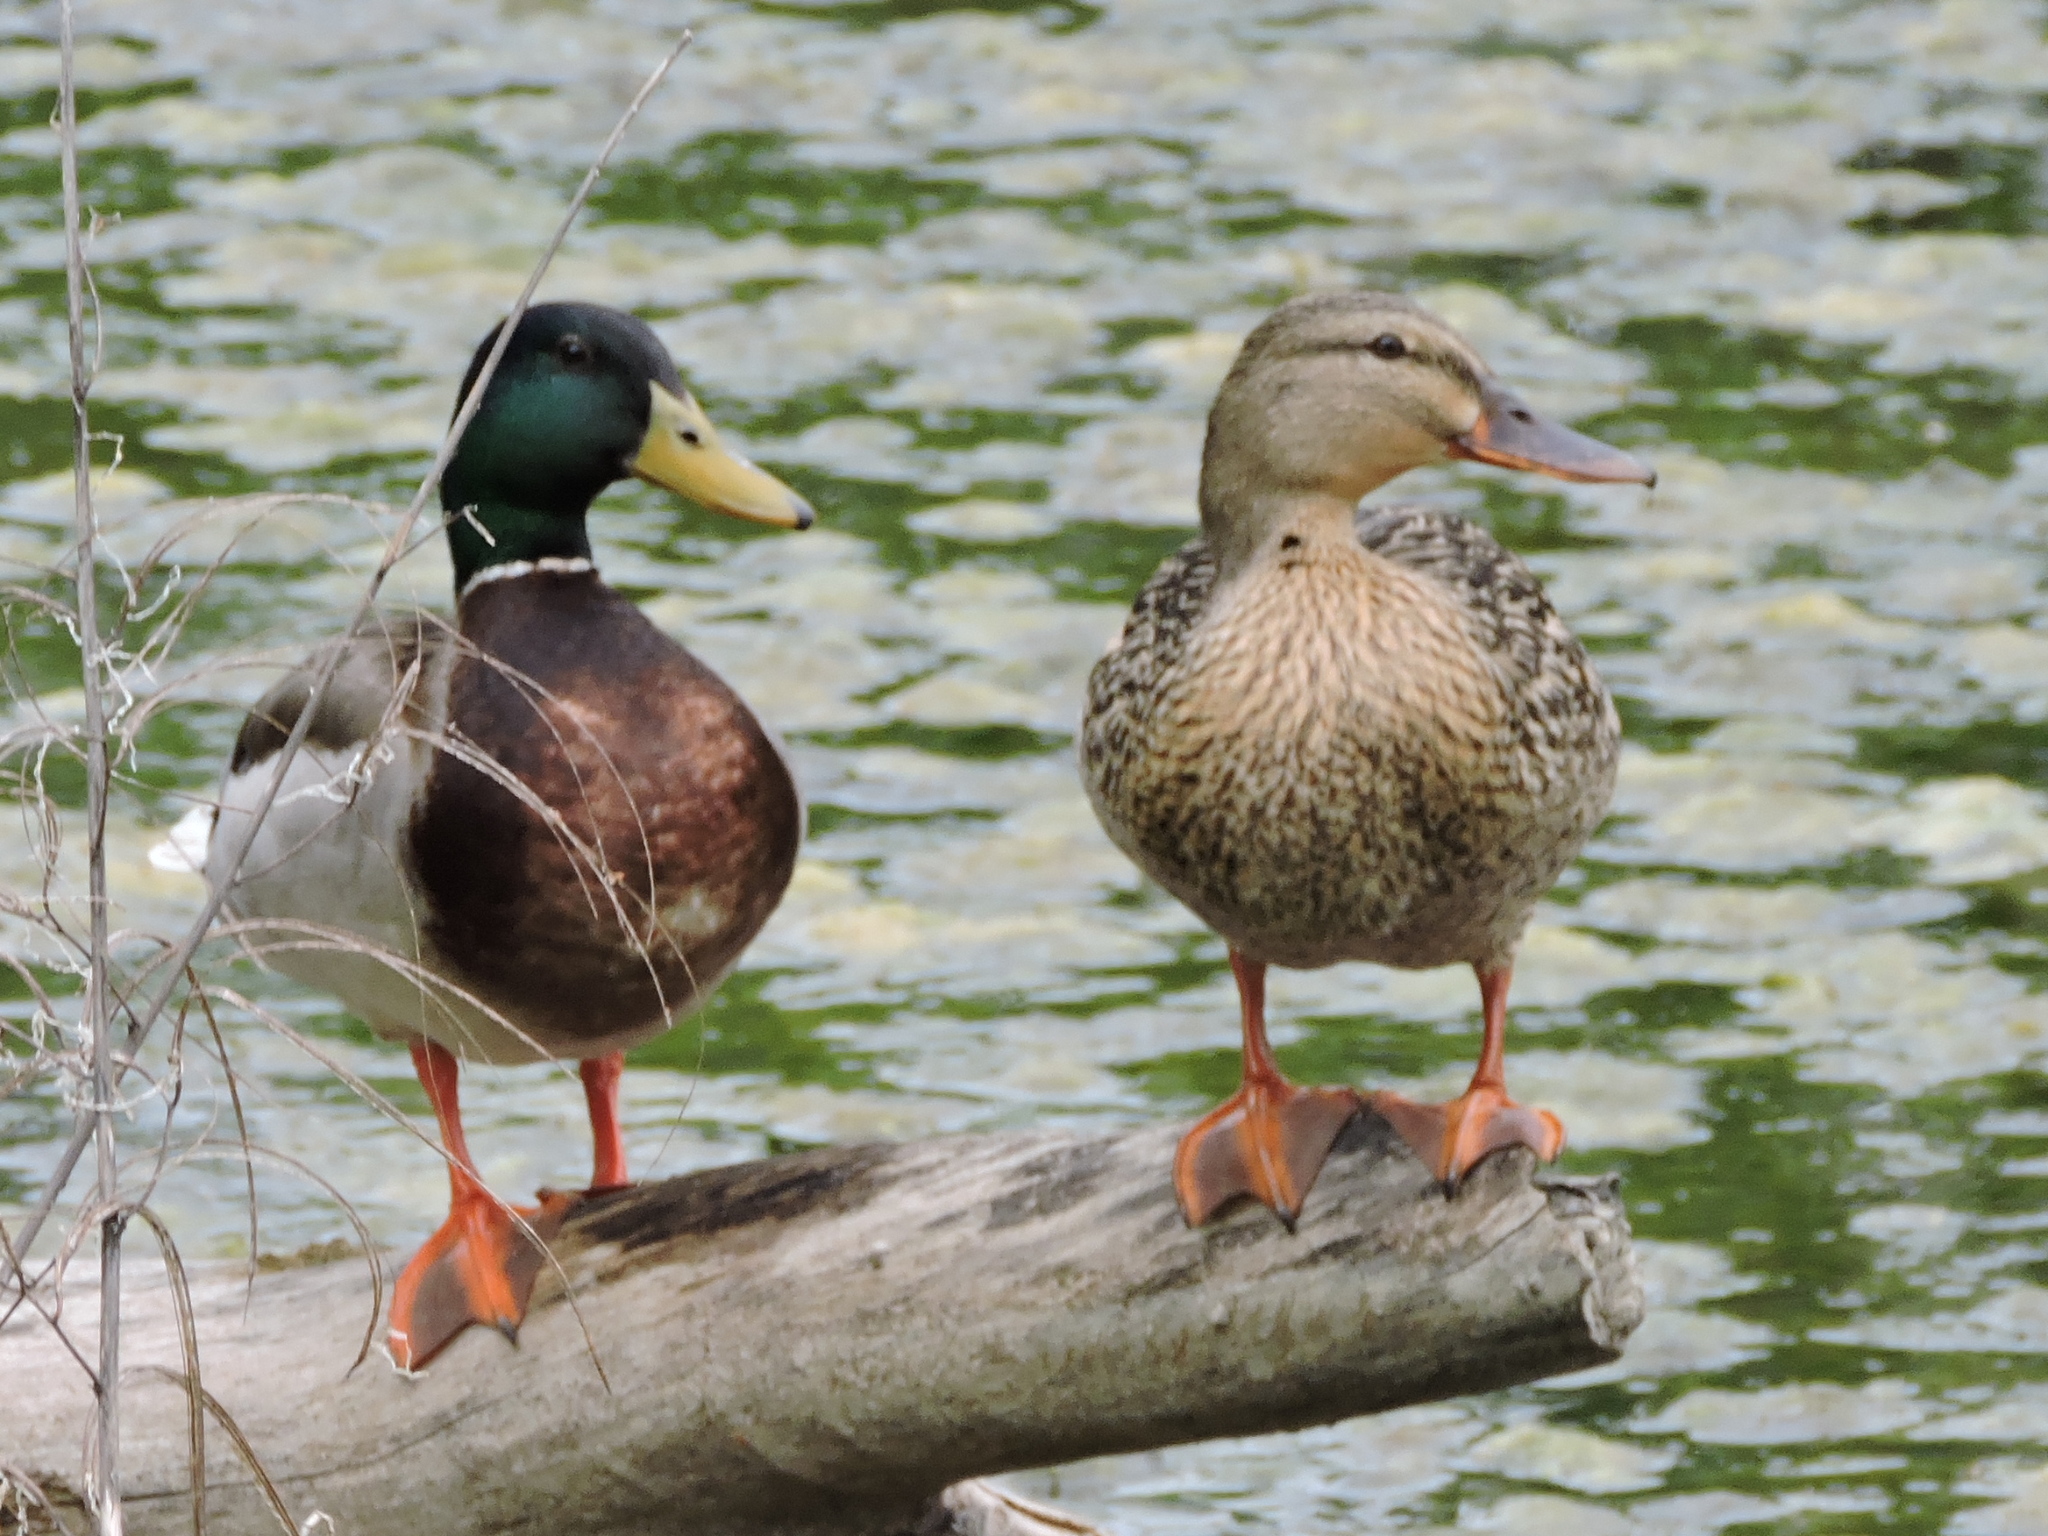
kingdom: Animalia
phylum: Chordata
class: Aves
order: Anseriformes
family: Anatidae
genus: Anas
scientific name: Anas platyrhynchos
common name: Mallard
